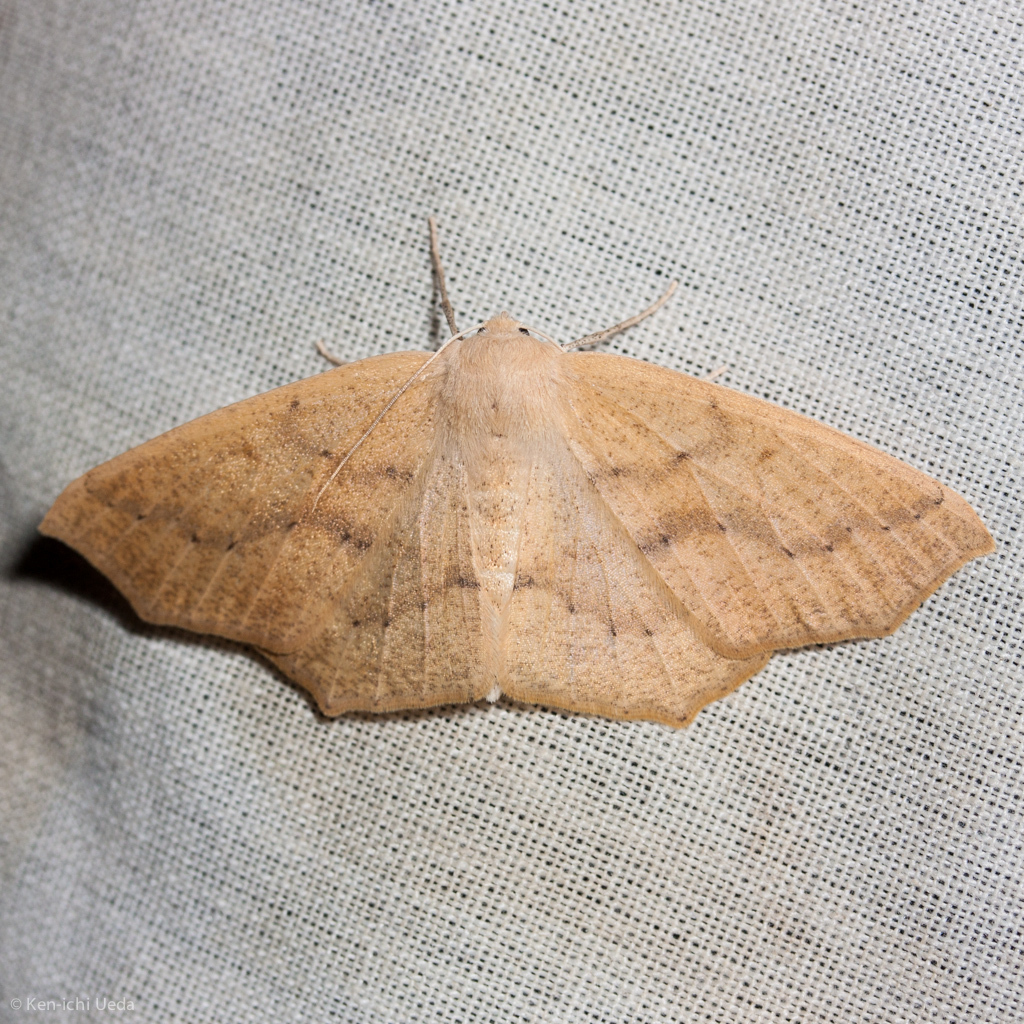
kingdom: Animalia
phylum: Arthropoda
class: Insecta
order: Lepidoptera
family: Geometridae
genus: Sabulodes
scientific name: Sabulodes aegrotata
